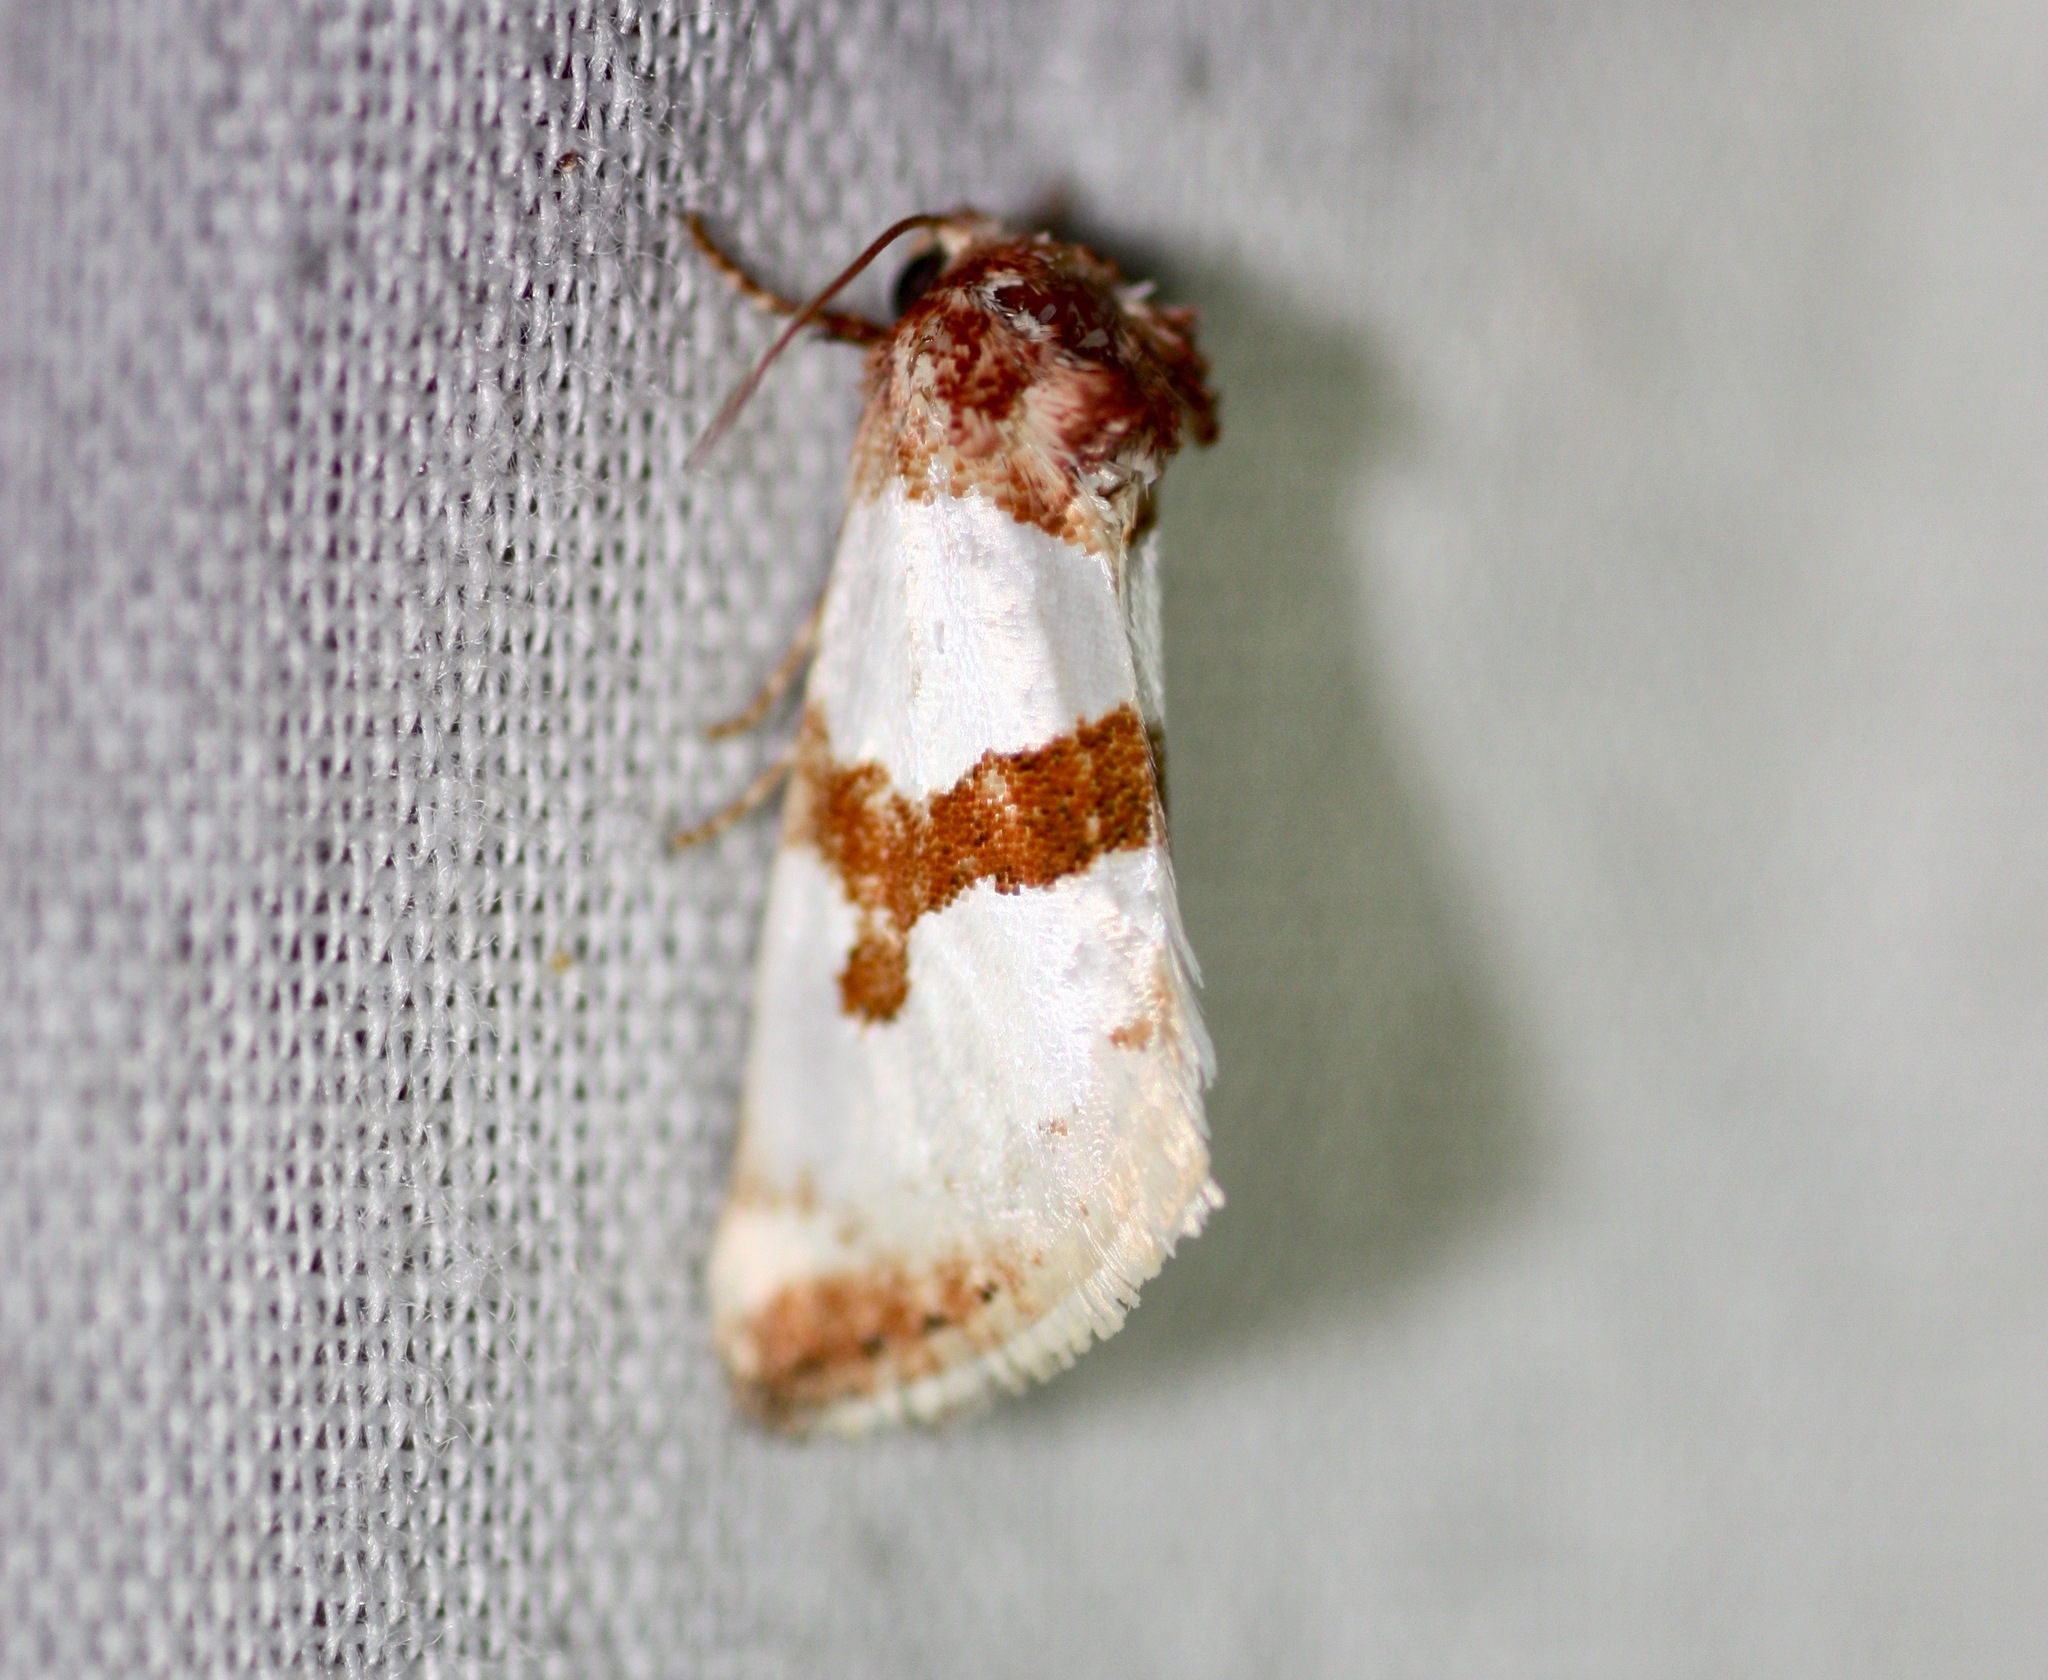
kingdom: Animalia
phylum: Arthropoda
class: Insecta
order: Lepidoptera
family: Noctuidae
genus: Schinia
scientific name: Schinia chrysellus
